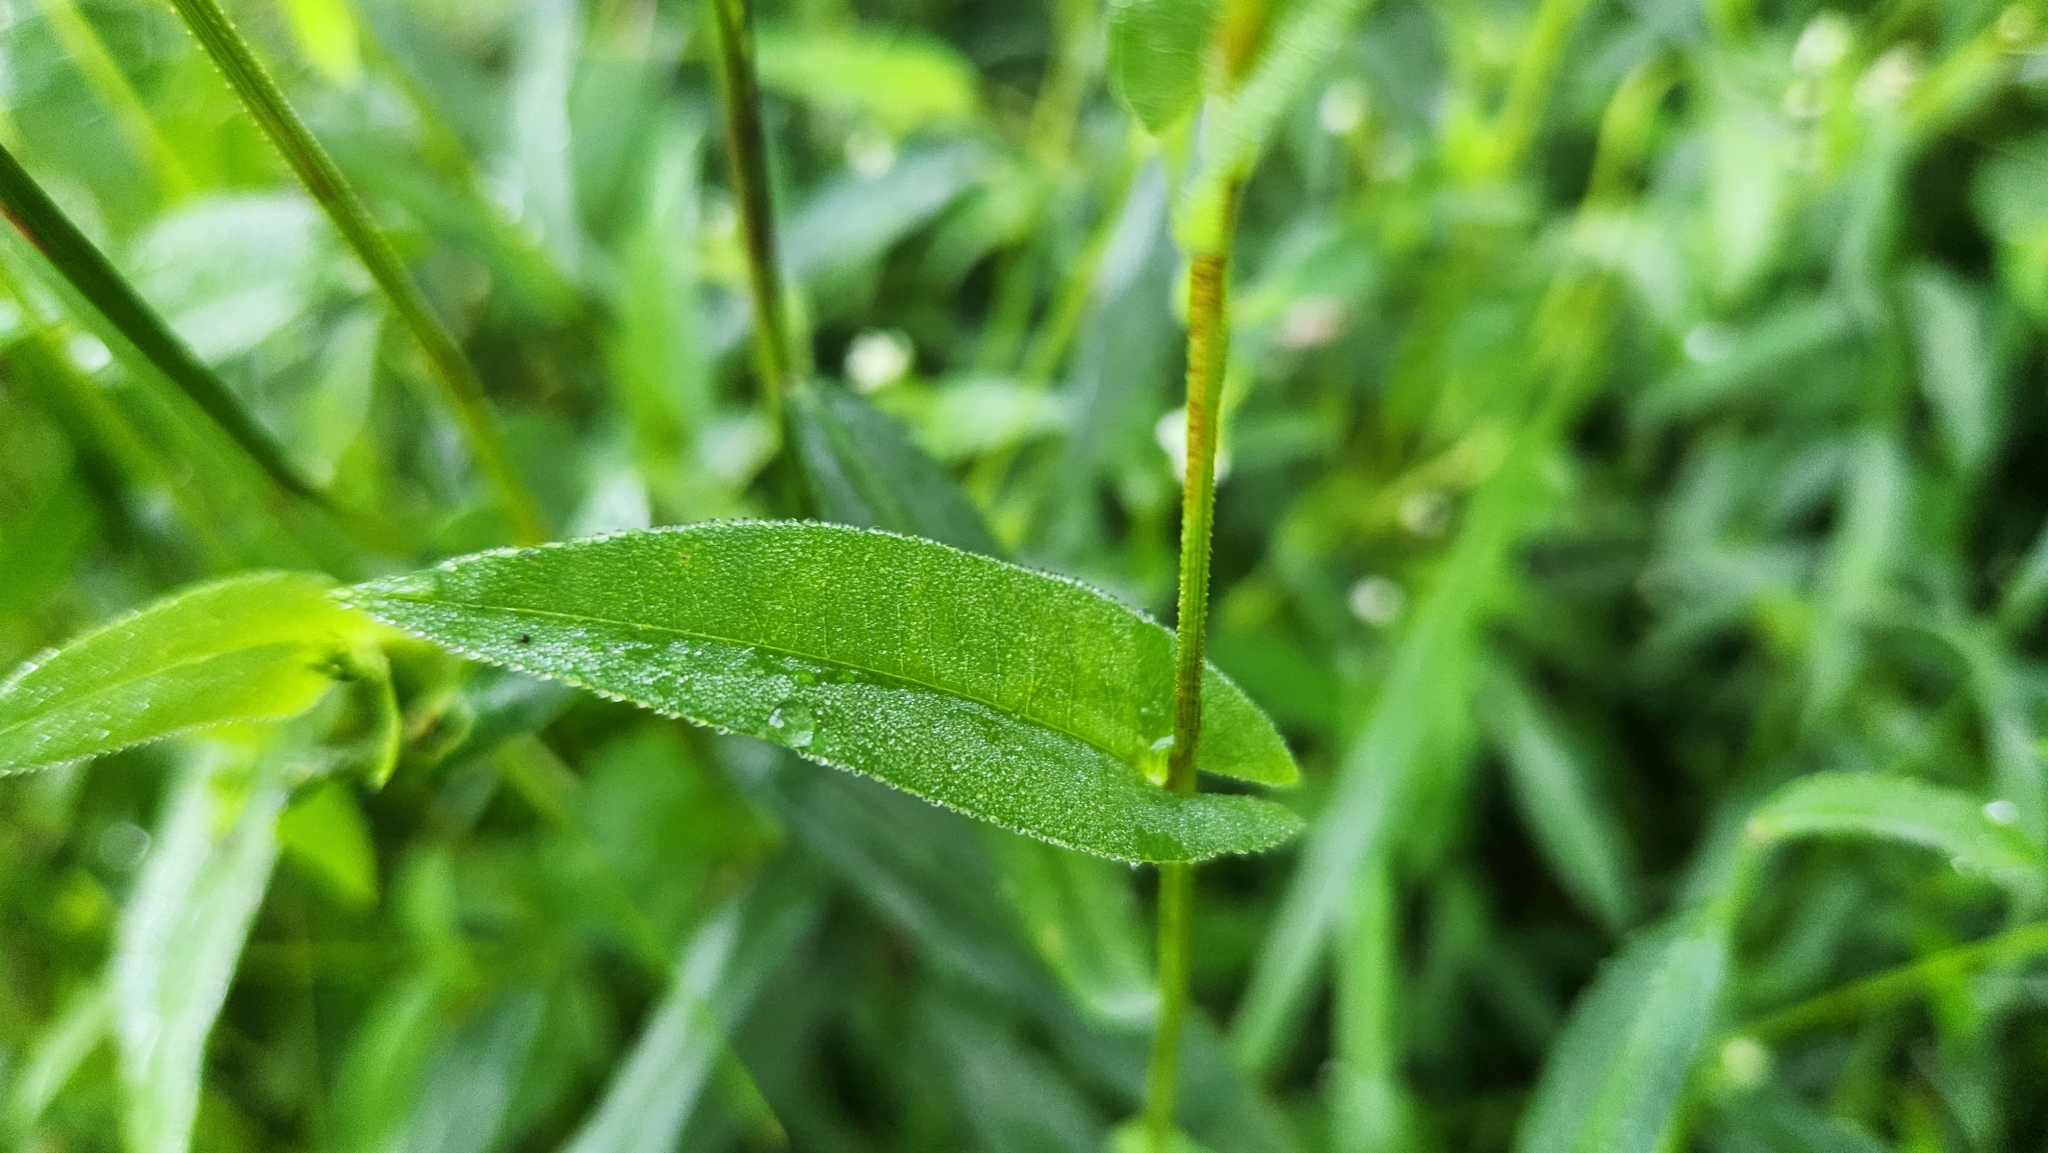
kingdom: Plantae
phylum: Tracheophyta
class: Magnoliopsida
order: Caryophyllales
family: Polygonaceae
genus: Persicaria
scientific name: Persicaria sagittata
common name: American tearthumb
